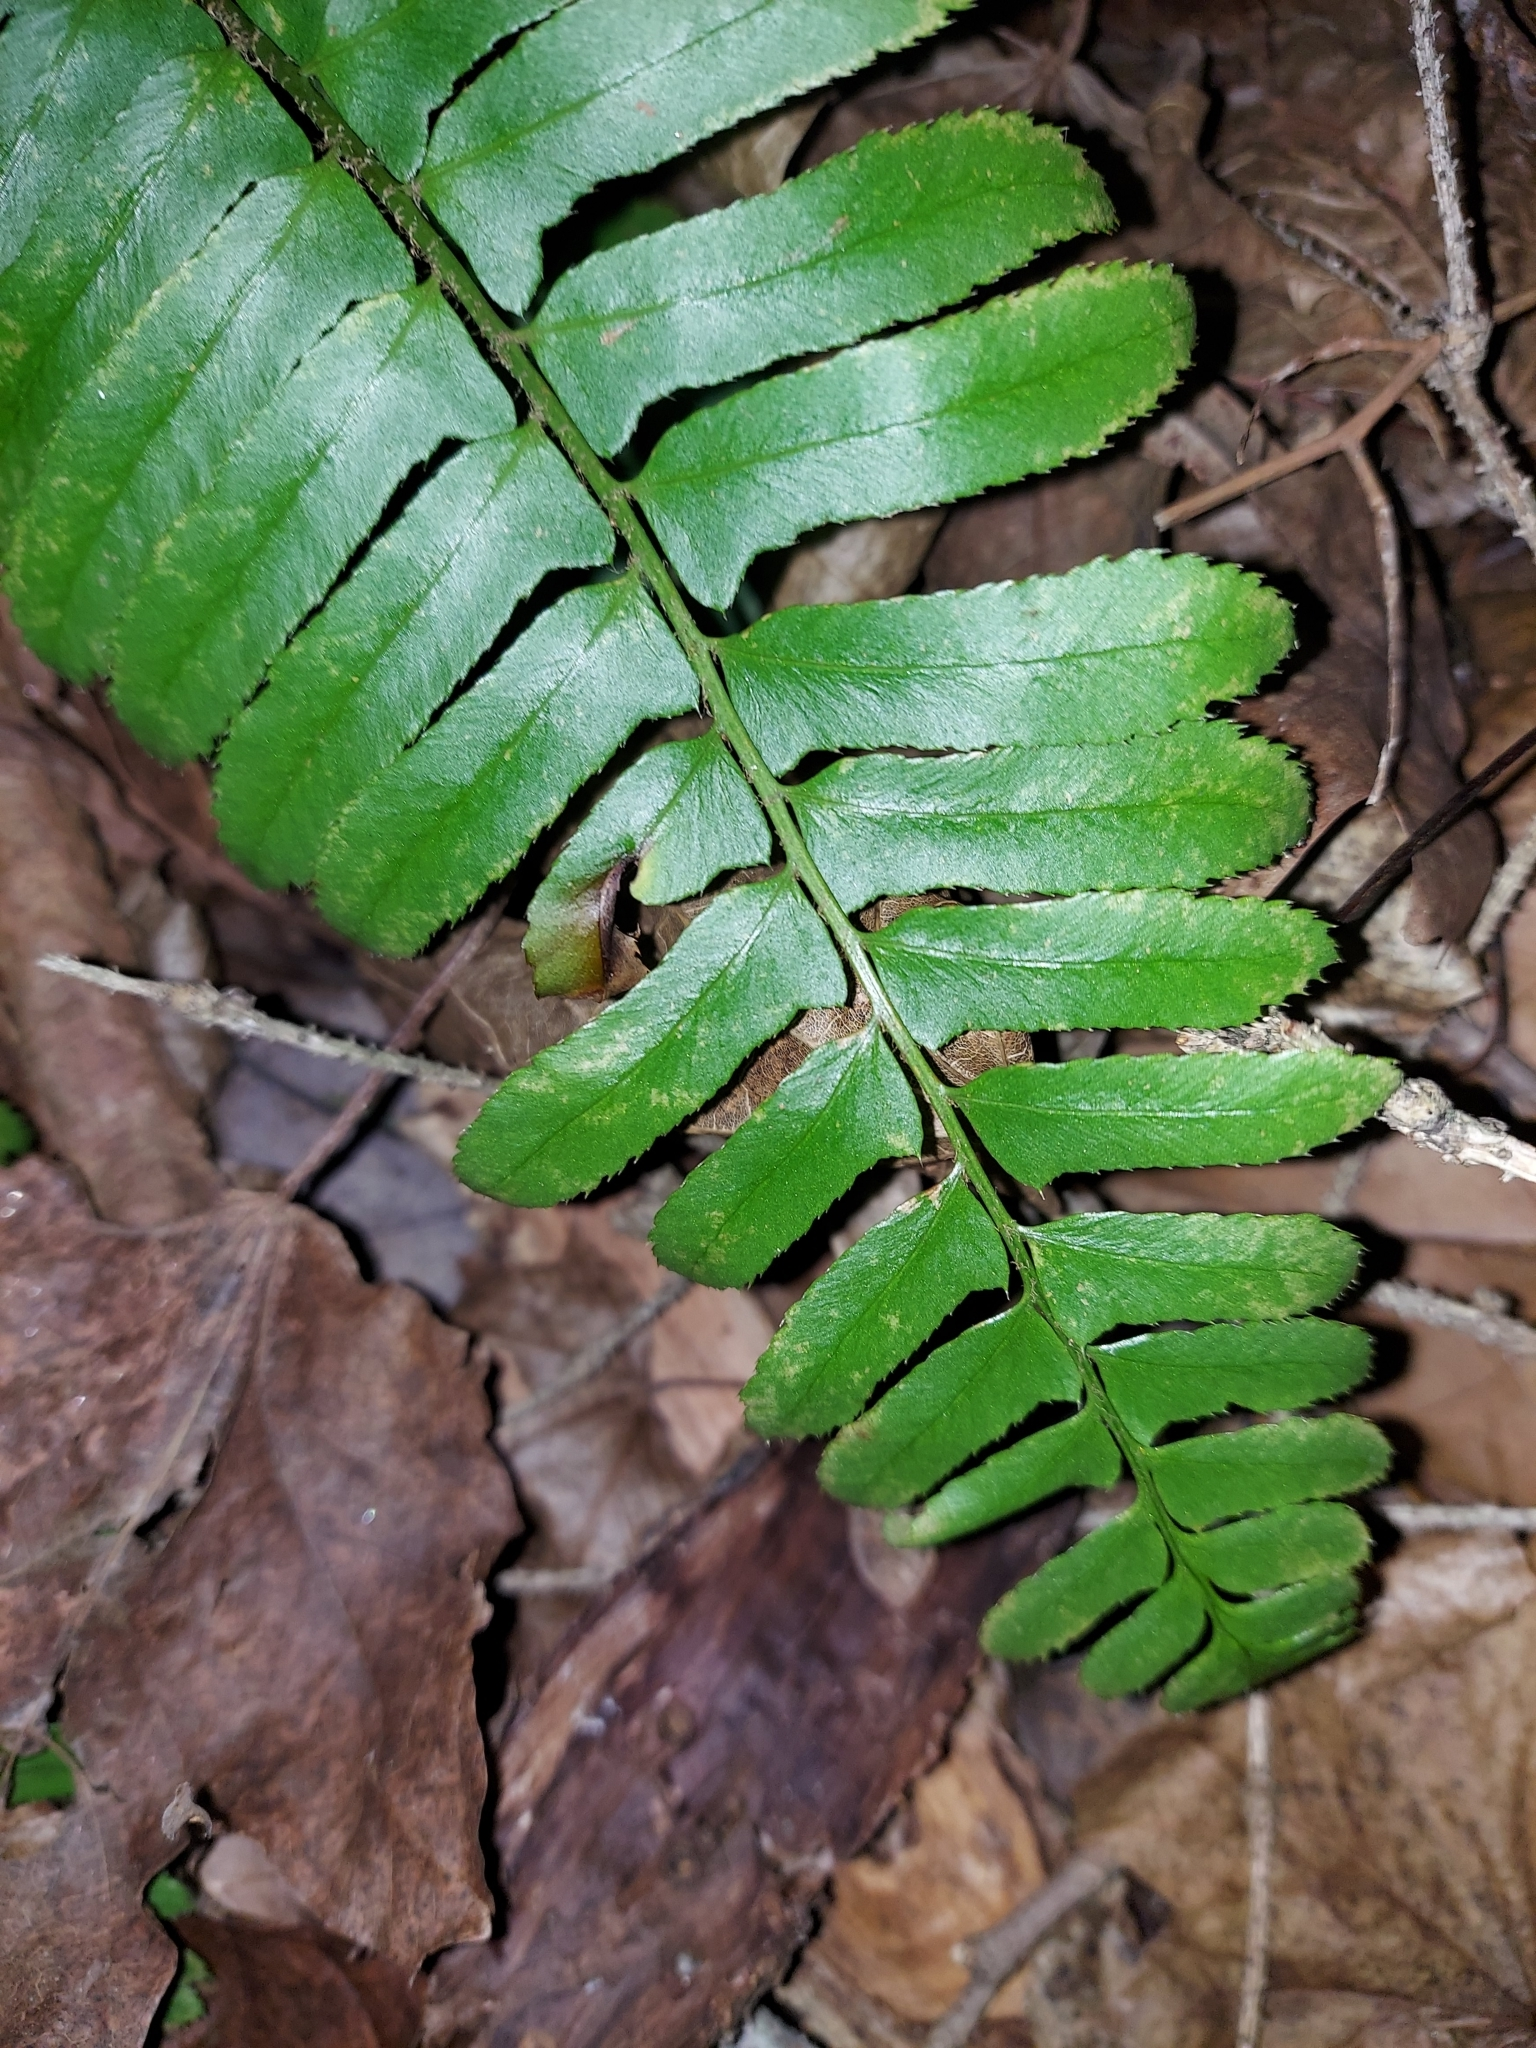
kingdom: Plantae
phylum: Tracheophyta
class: Polypodiopsida
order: Polypodiales
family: Dryopteridaceae
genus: Polystichum
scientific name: Polystichum acrostichoides
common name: Christmas fern
